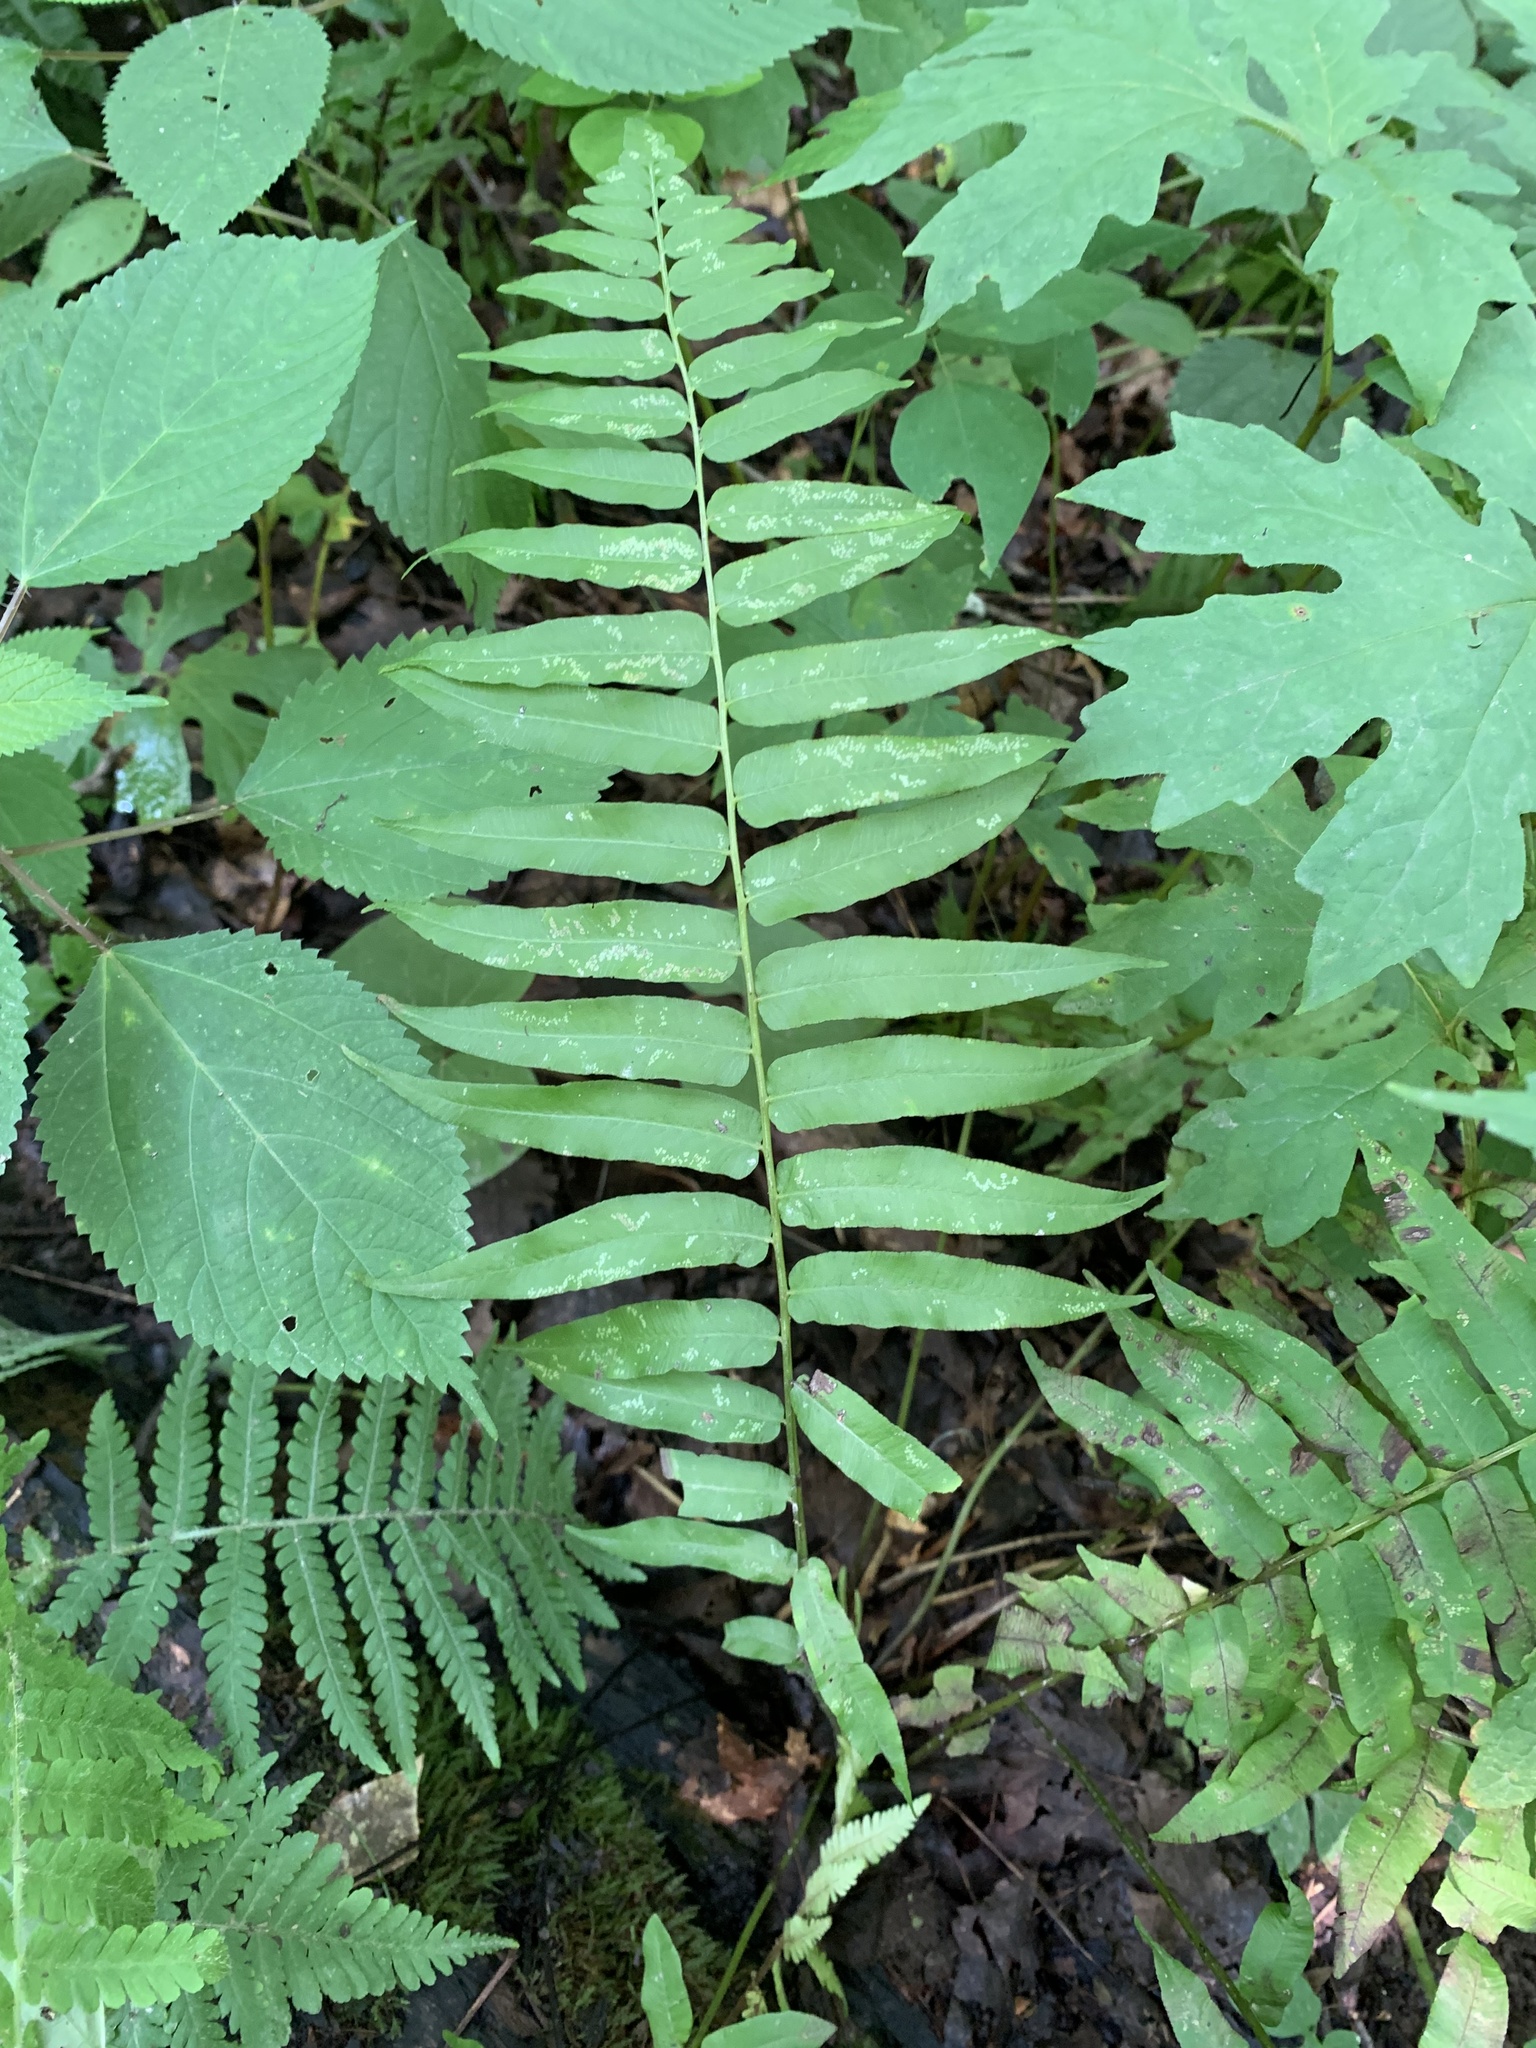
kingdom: Plantae
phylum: Tracheophyta
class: Polypodiopsida
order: Polypodiales
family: Diplaziopsidaceae
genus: Homalosorus
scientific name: Homalosorus pycnocarpos
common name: Glade fern
